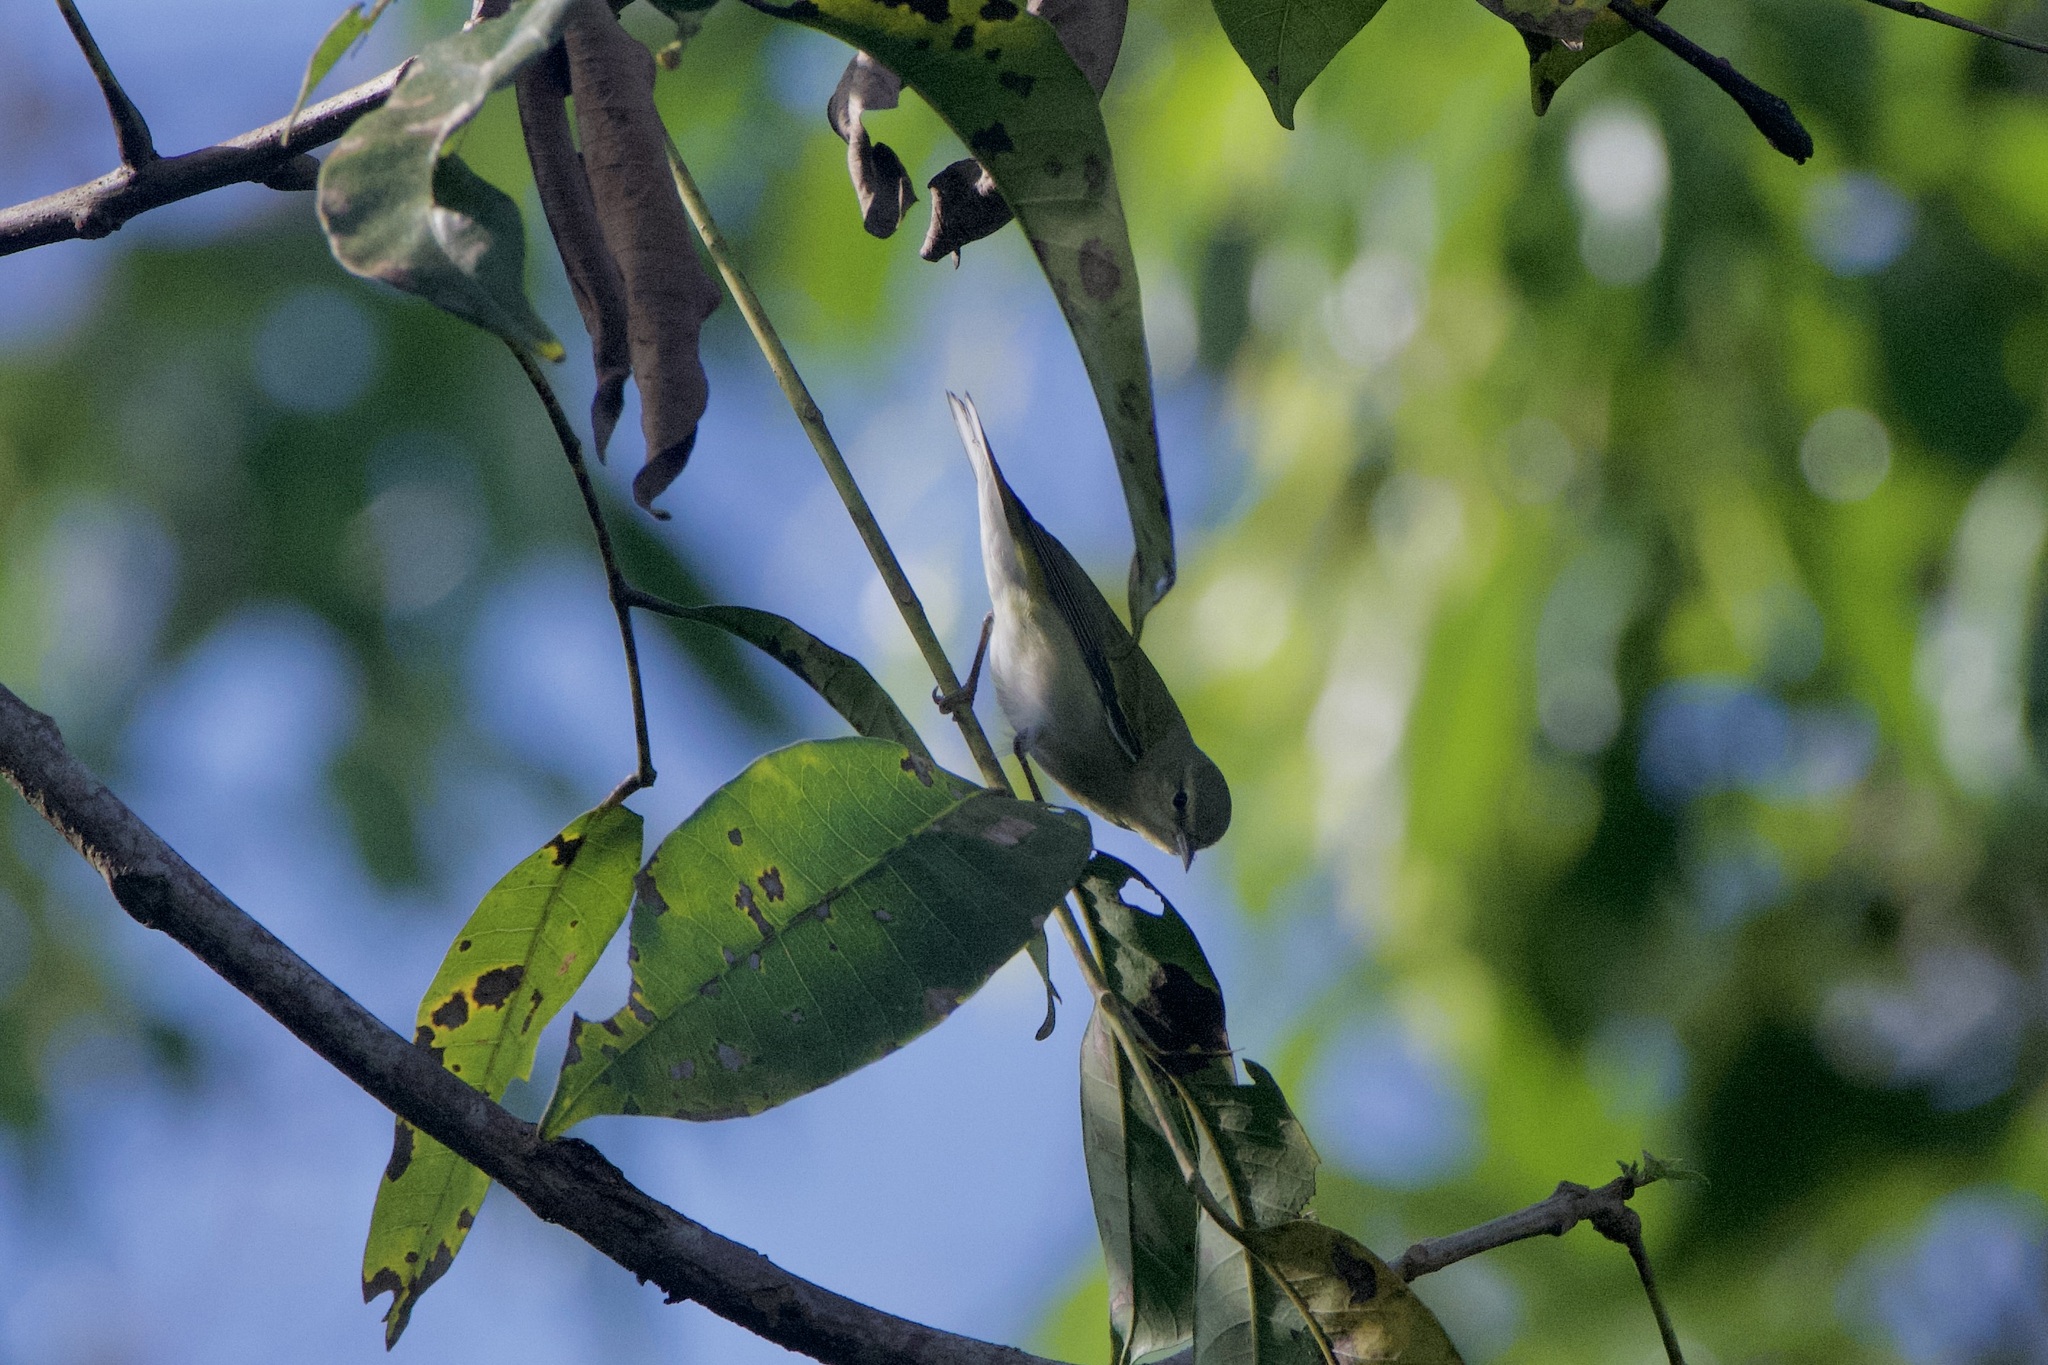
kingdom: Animalia
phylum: Chordata
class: Aves
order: Passeriformes
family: Parulidae
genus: Leiothlypis
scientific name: Leiothlypis peregrina
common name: Tennessee warbler
